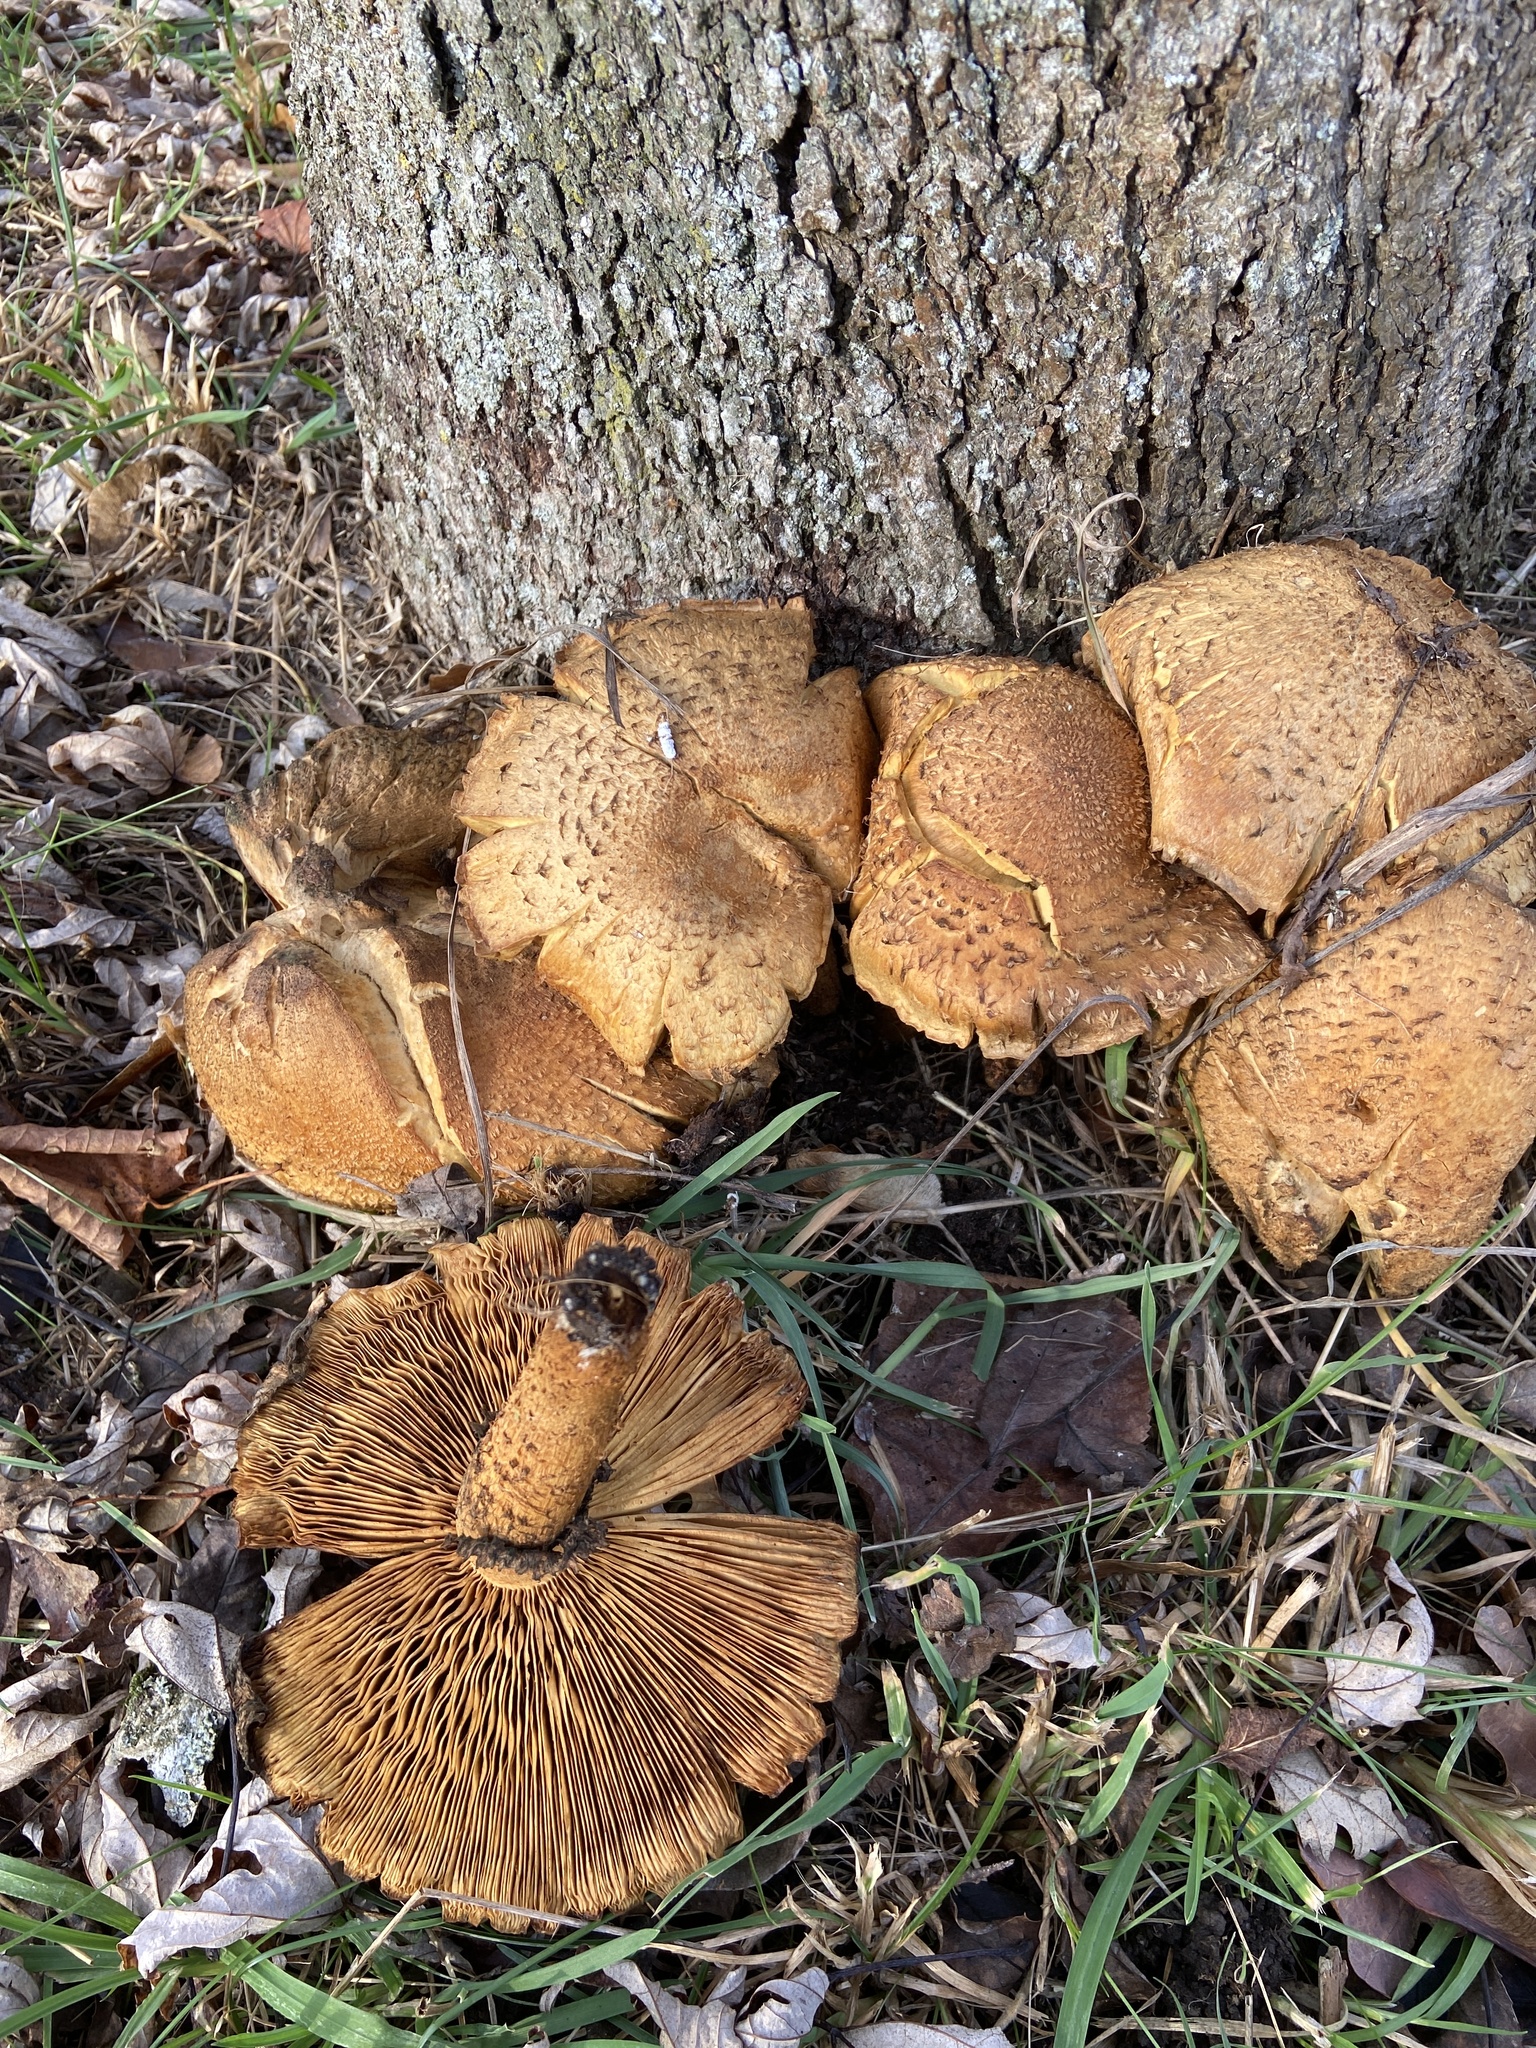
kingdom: Fungi
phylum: Basidiomycota
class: Agaricomycetes
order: Agaricales
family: Strophariaceae
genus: Pholiota
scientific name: Pholiota squarrosa
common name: Shaggy pholiota
